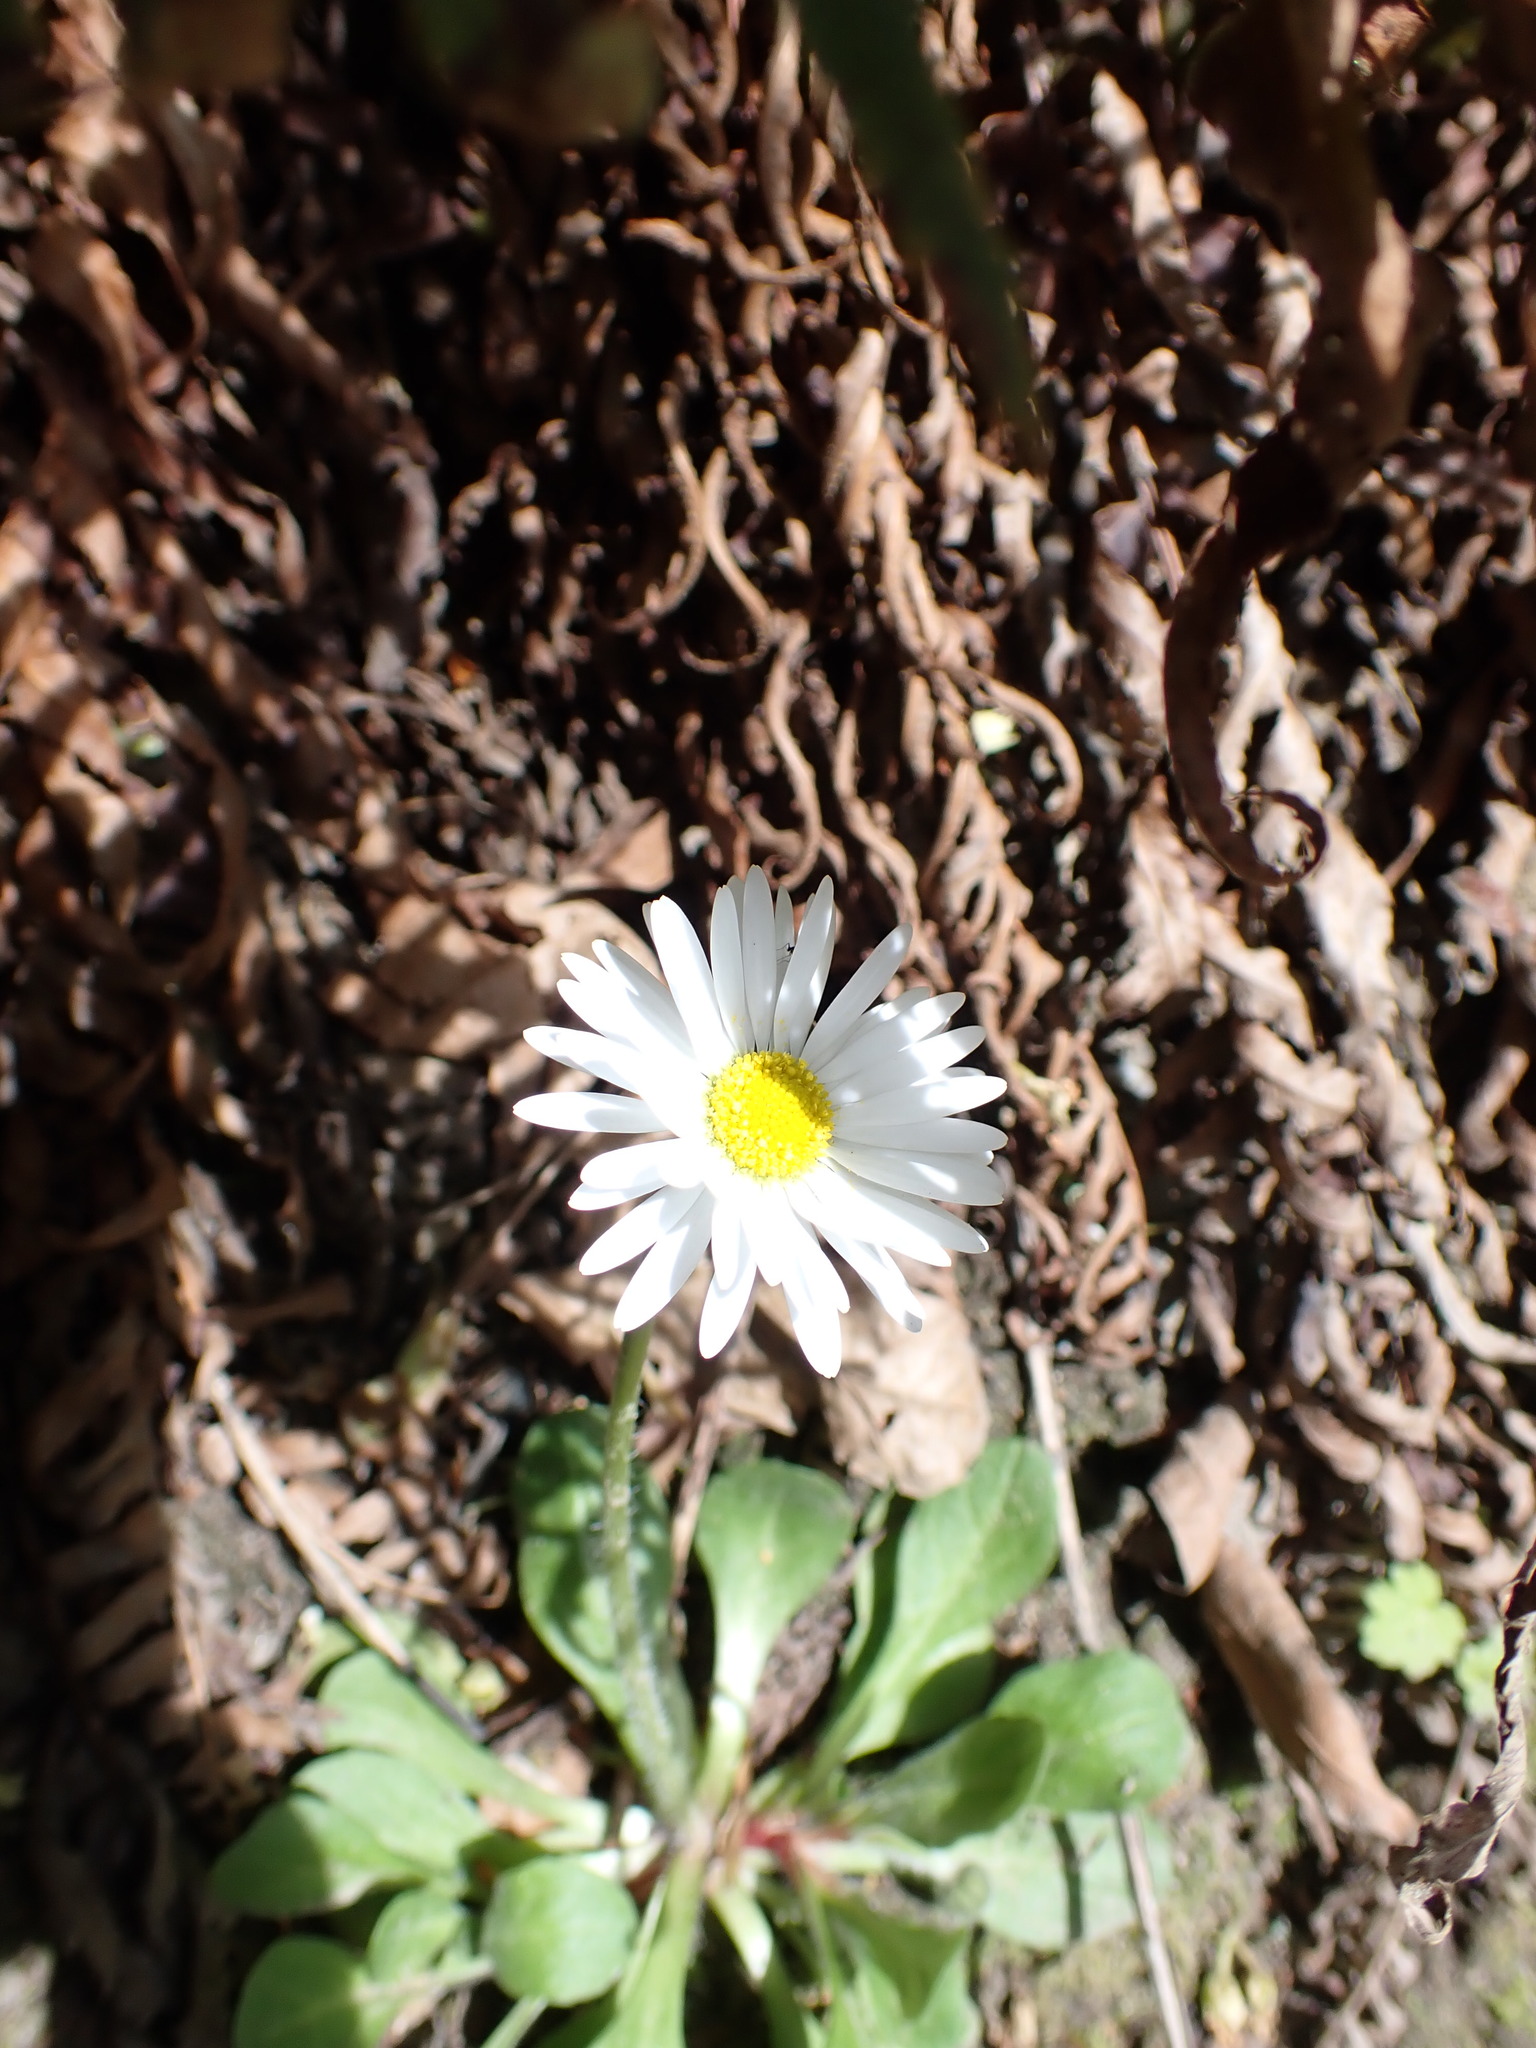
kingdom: Plantae
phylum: Tracheophyta
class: Magnoliopsida
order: Asterales
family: Asteraceae
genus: Bellis
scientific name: Bellis perennis
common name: Lawndaisy
